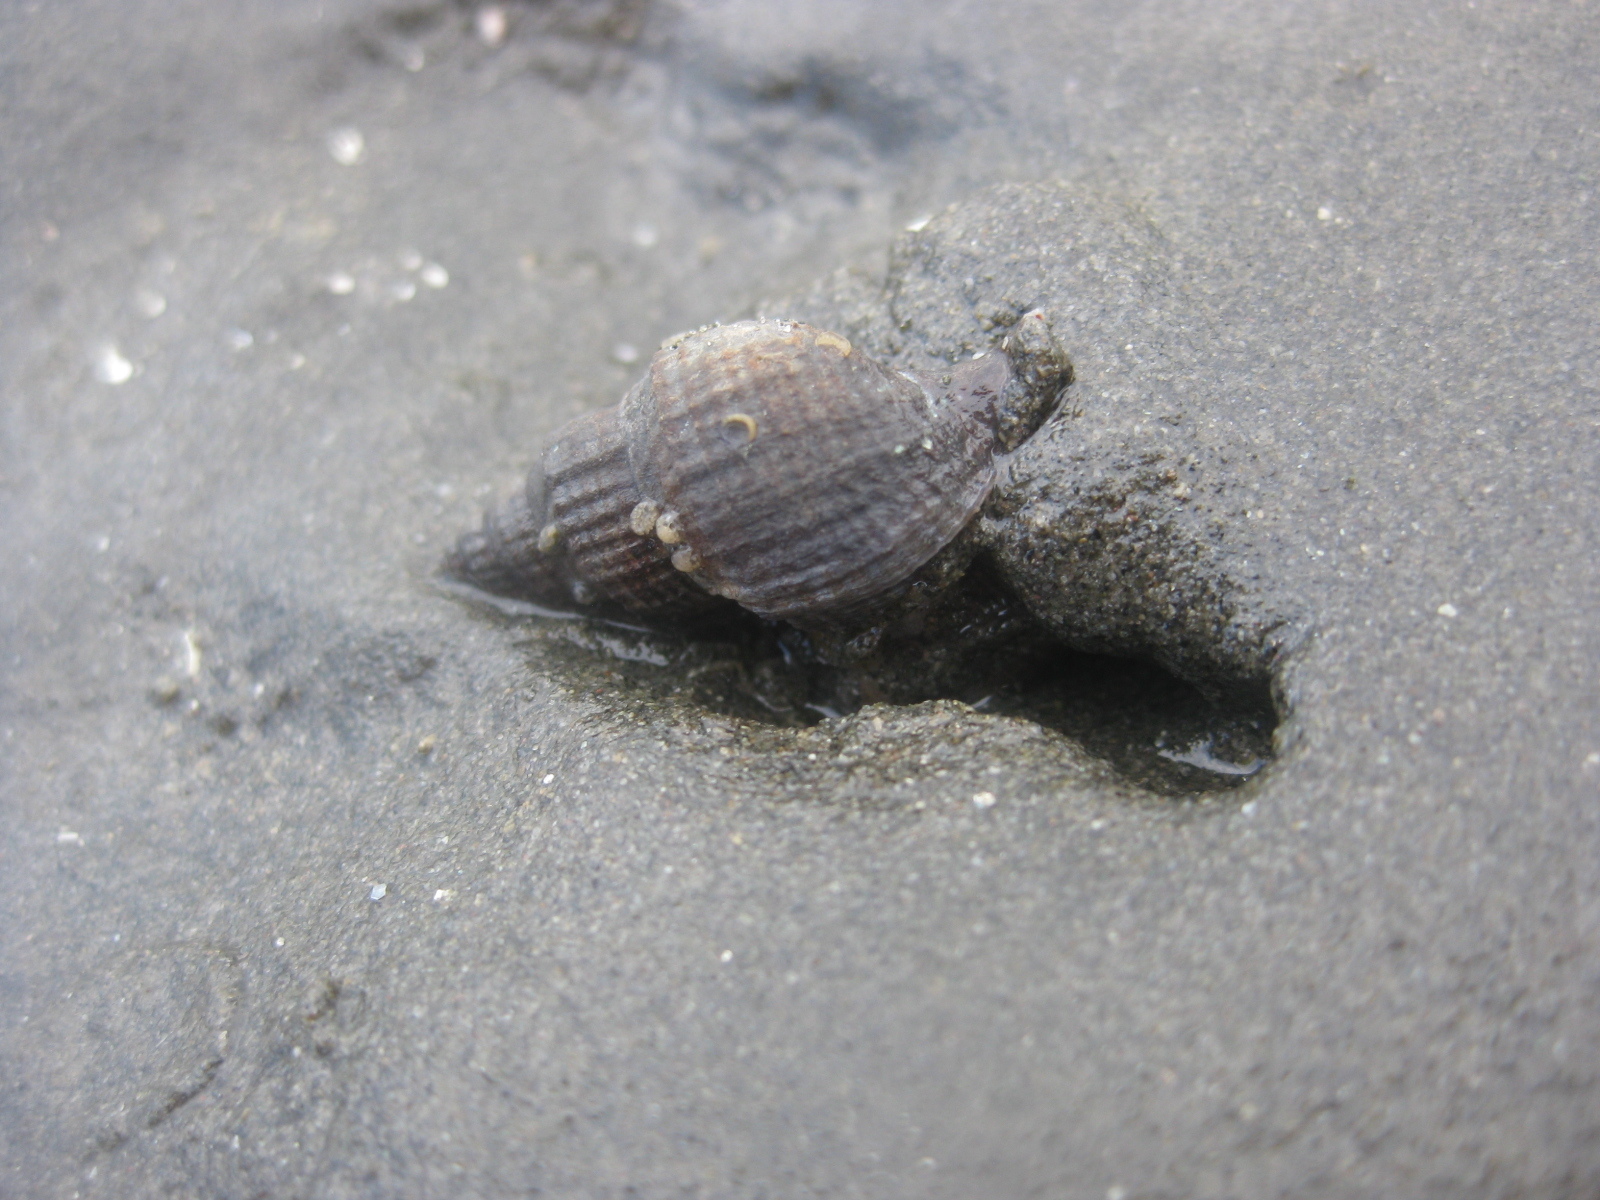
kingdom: Animalia
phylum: Mollusca
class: Gastropoda
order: Neogastropoda
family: Muricidae
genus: Xymene
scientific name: Xymene plebeius
